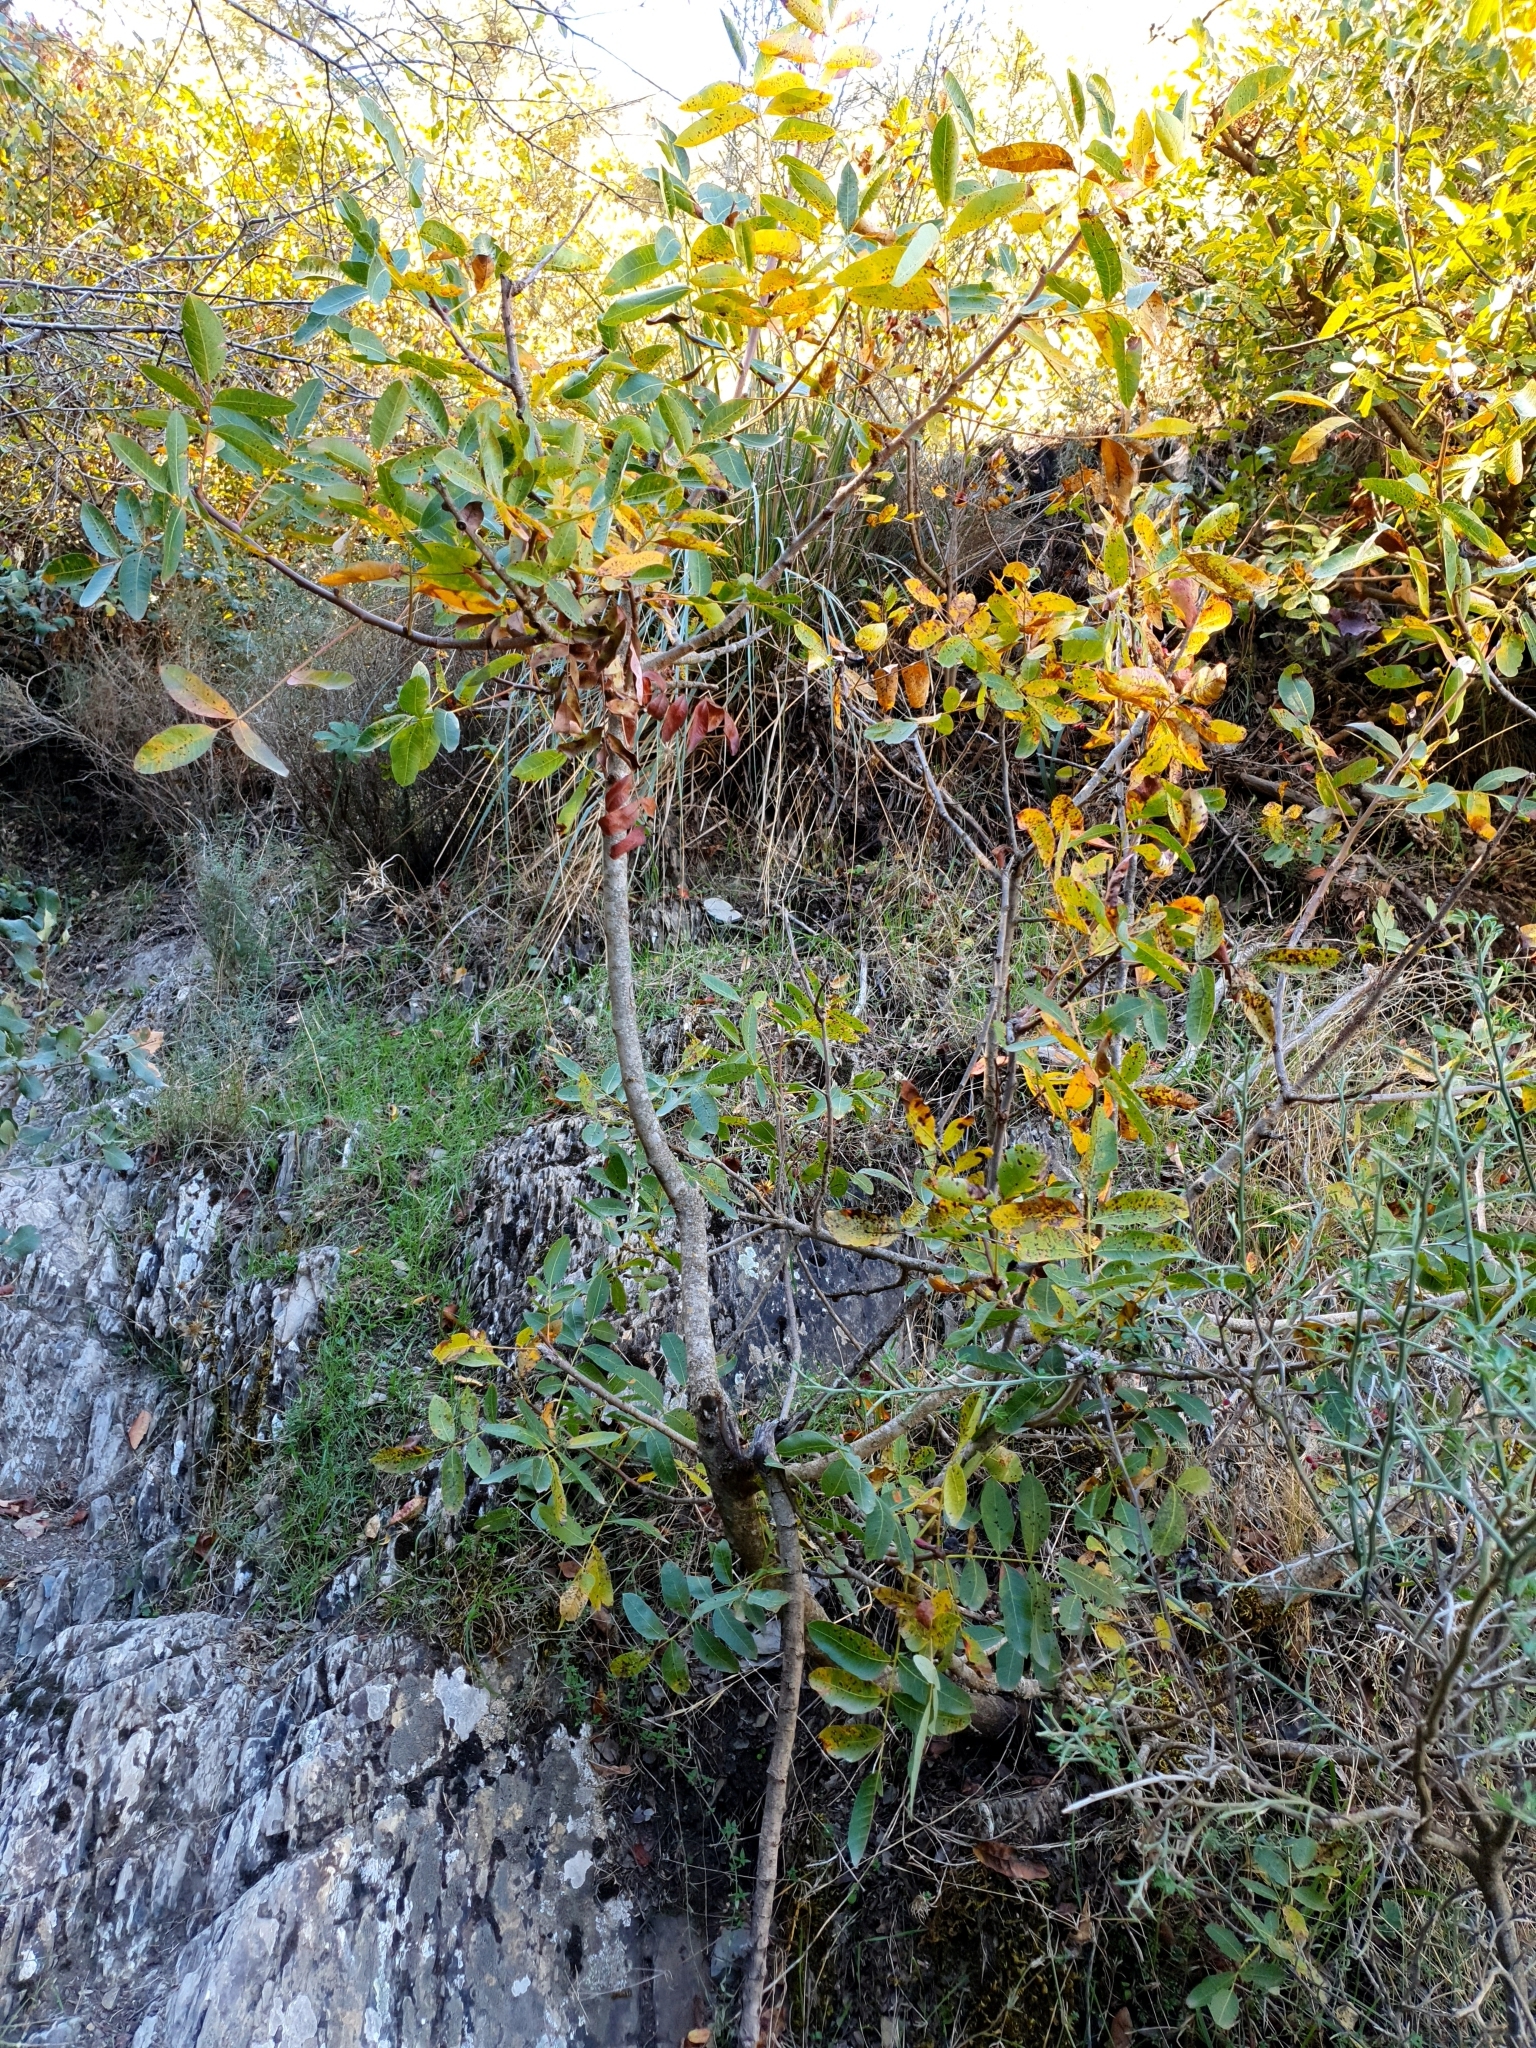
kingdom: Plantae
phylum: Tracheophyta
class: Magnoliopsida
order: Sapindales
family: Anacardiaceae
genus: Pistacia
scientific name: Pistacia terebinthus
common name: Terebinth
